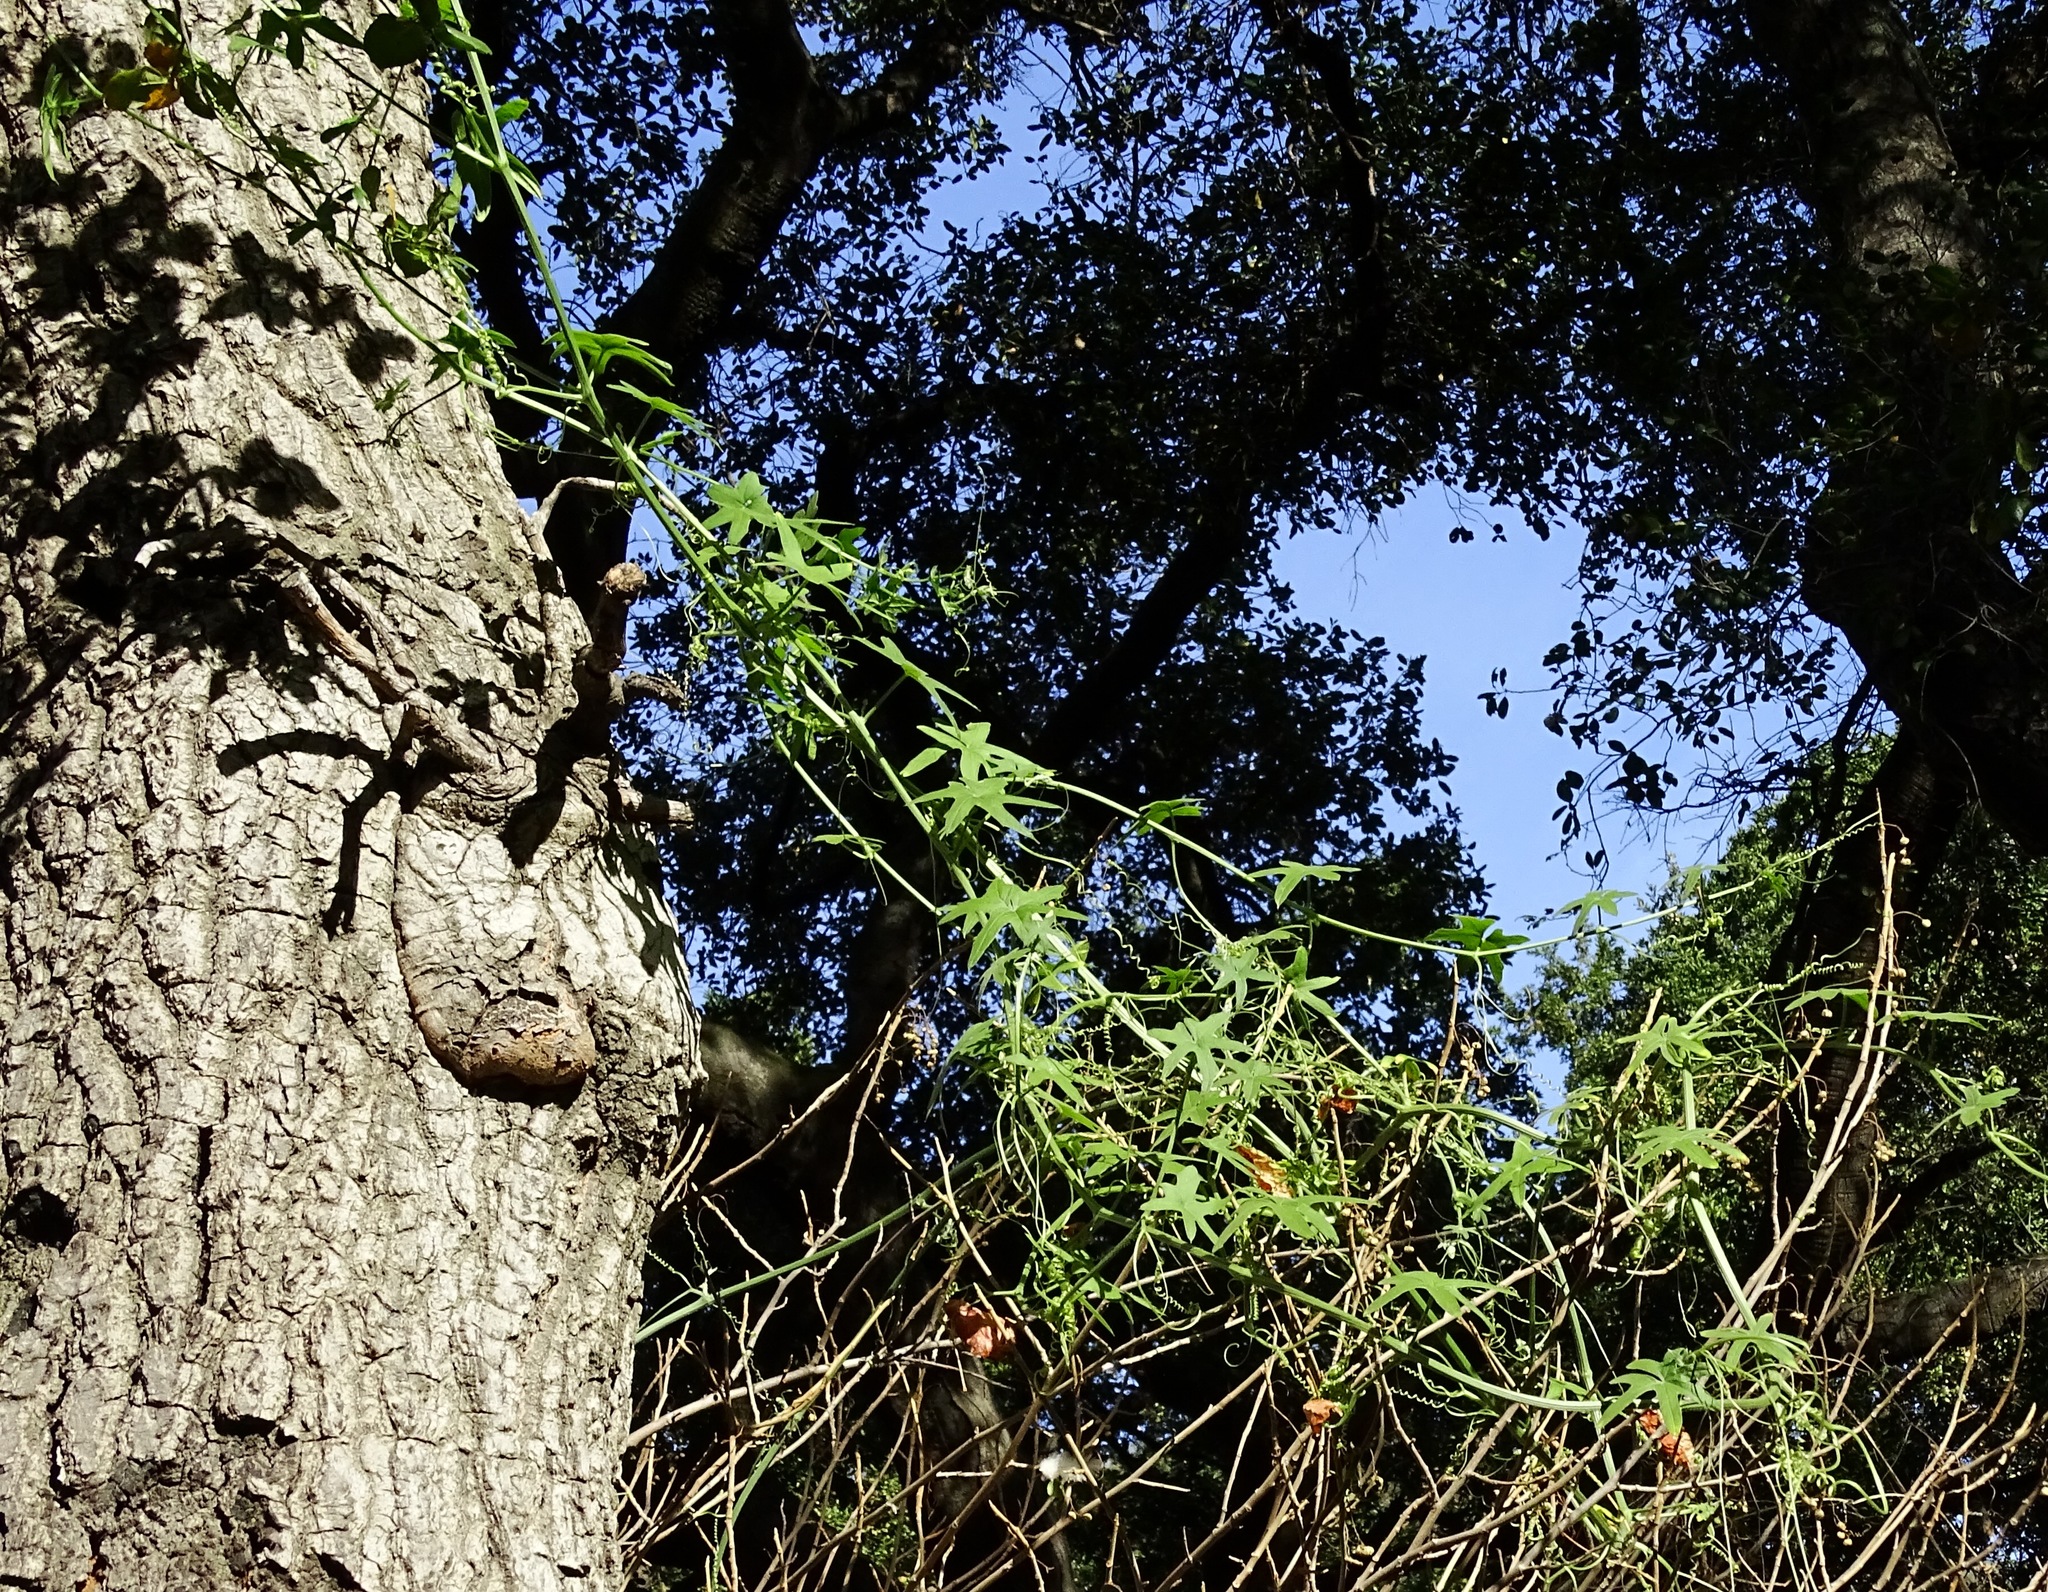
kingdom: Plantae
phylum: Tracheophyta
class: Magnoliopsida
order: Cucurbitales
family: Cucurbitaceae
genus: Marah
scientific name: Marah macrocarpa
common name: Cucamonga manroot
